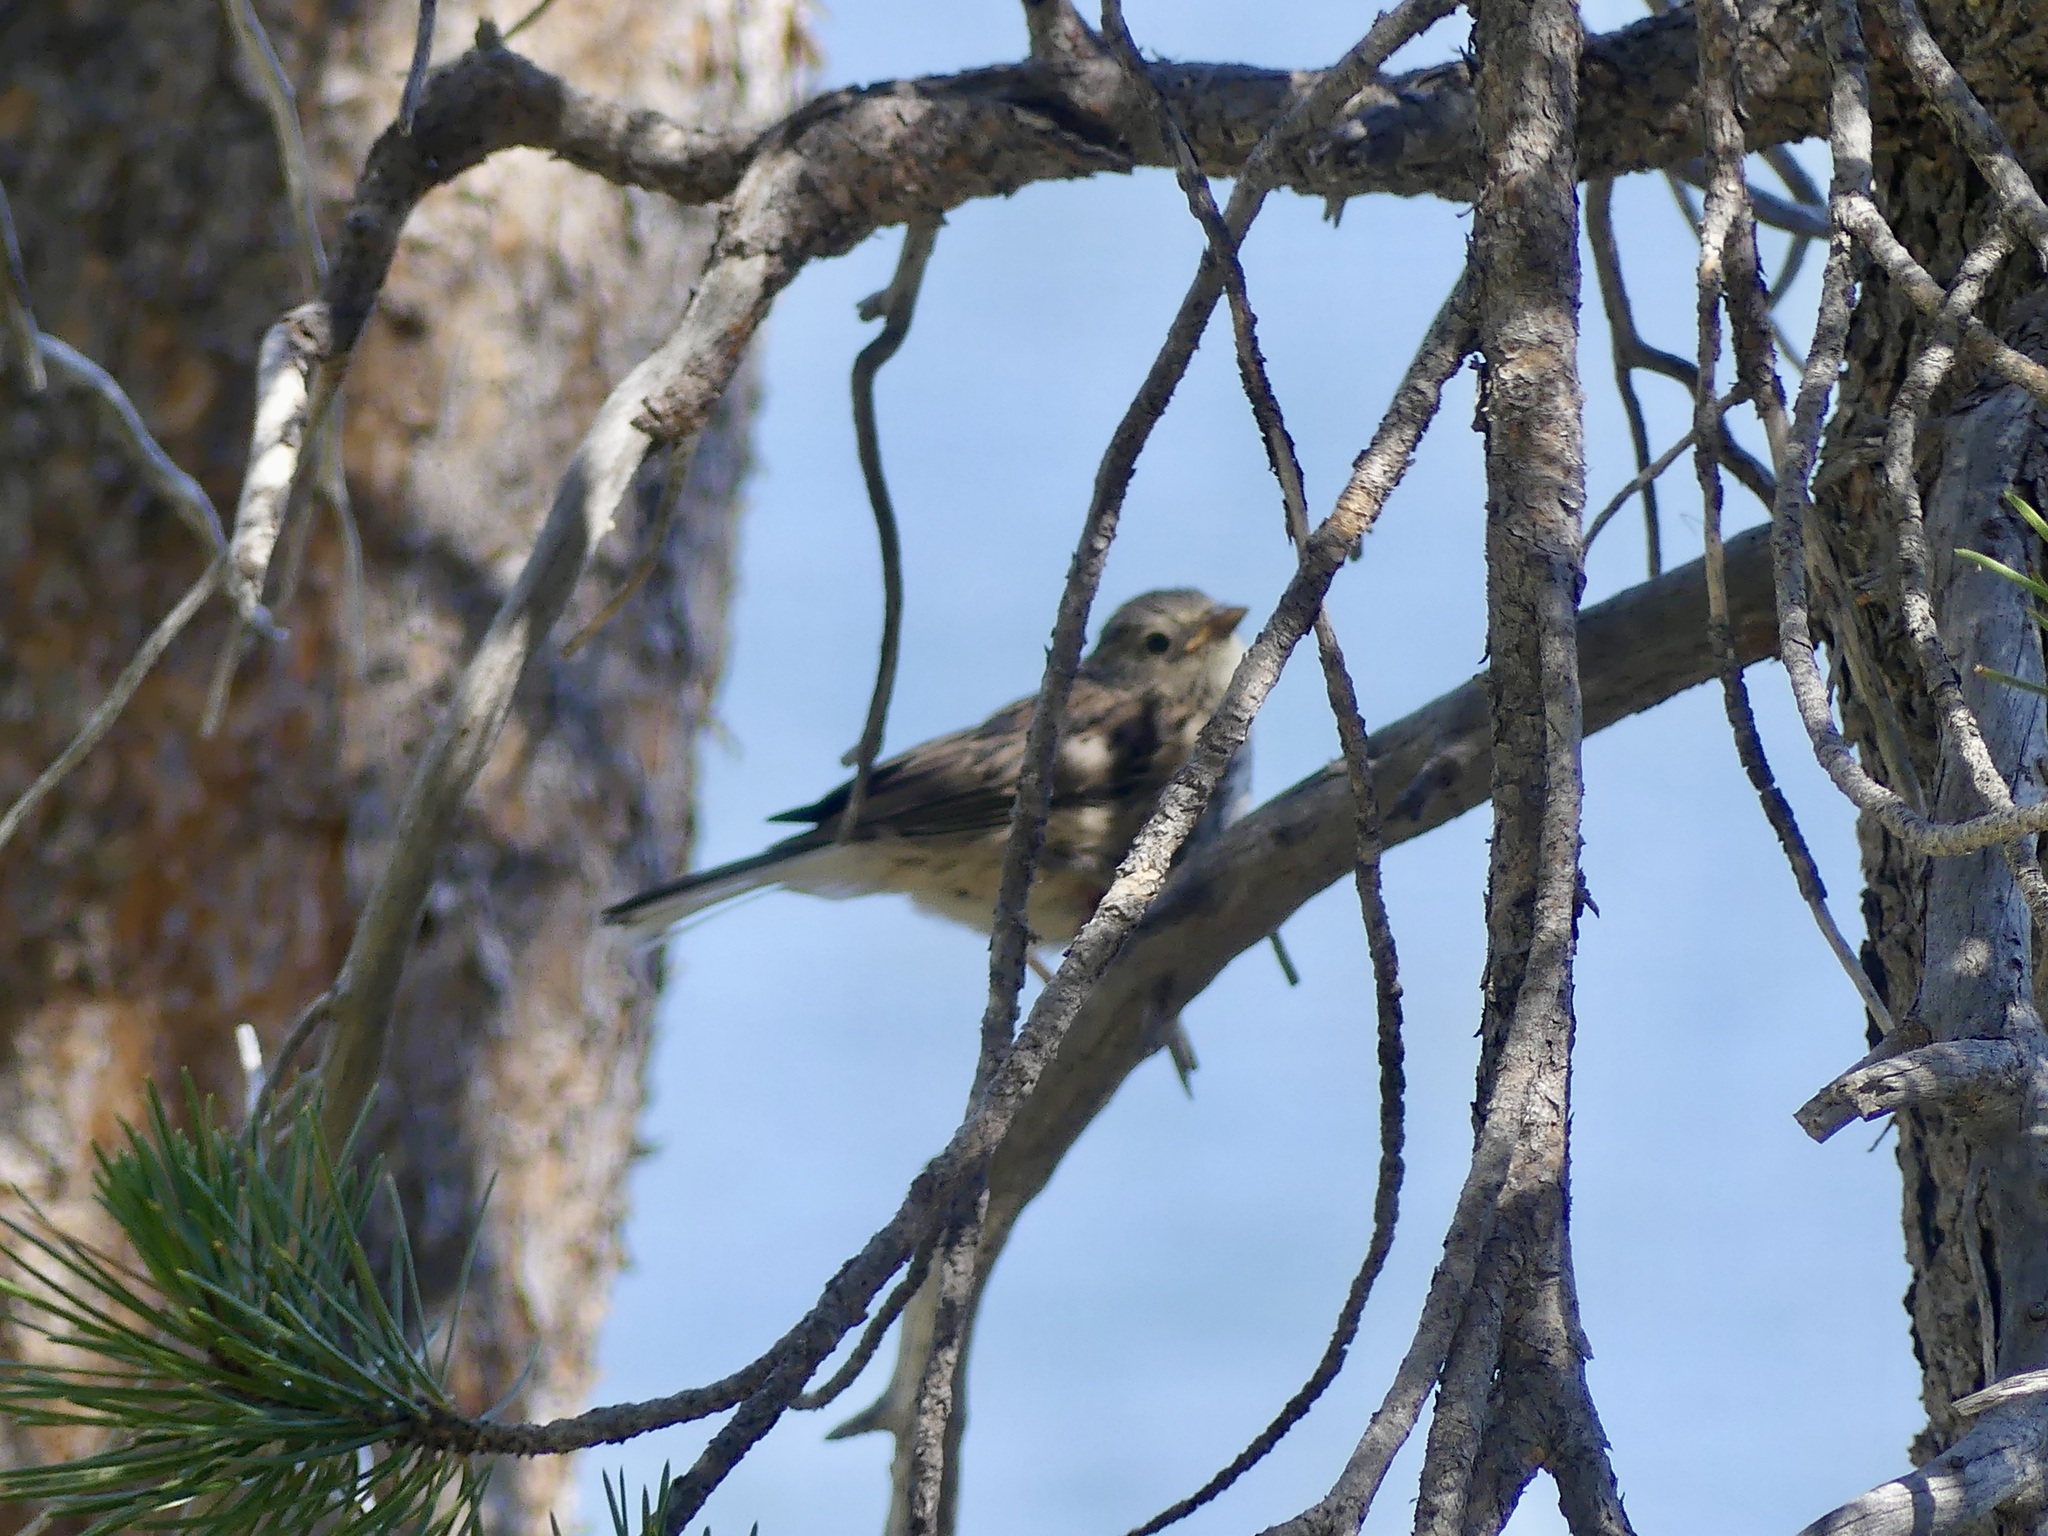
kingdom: Animalia
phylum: Chordata
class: Aves
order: Passeriformes
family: Parulidae
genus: Setophaga
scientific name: Setophaga coronata
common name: Myrtle warbler
